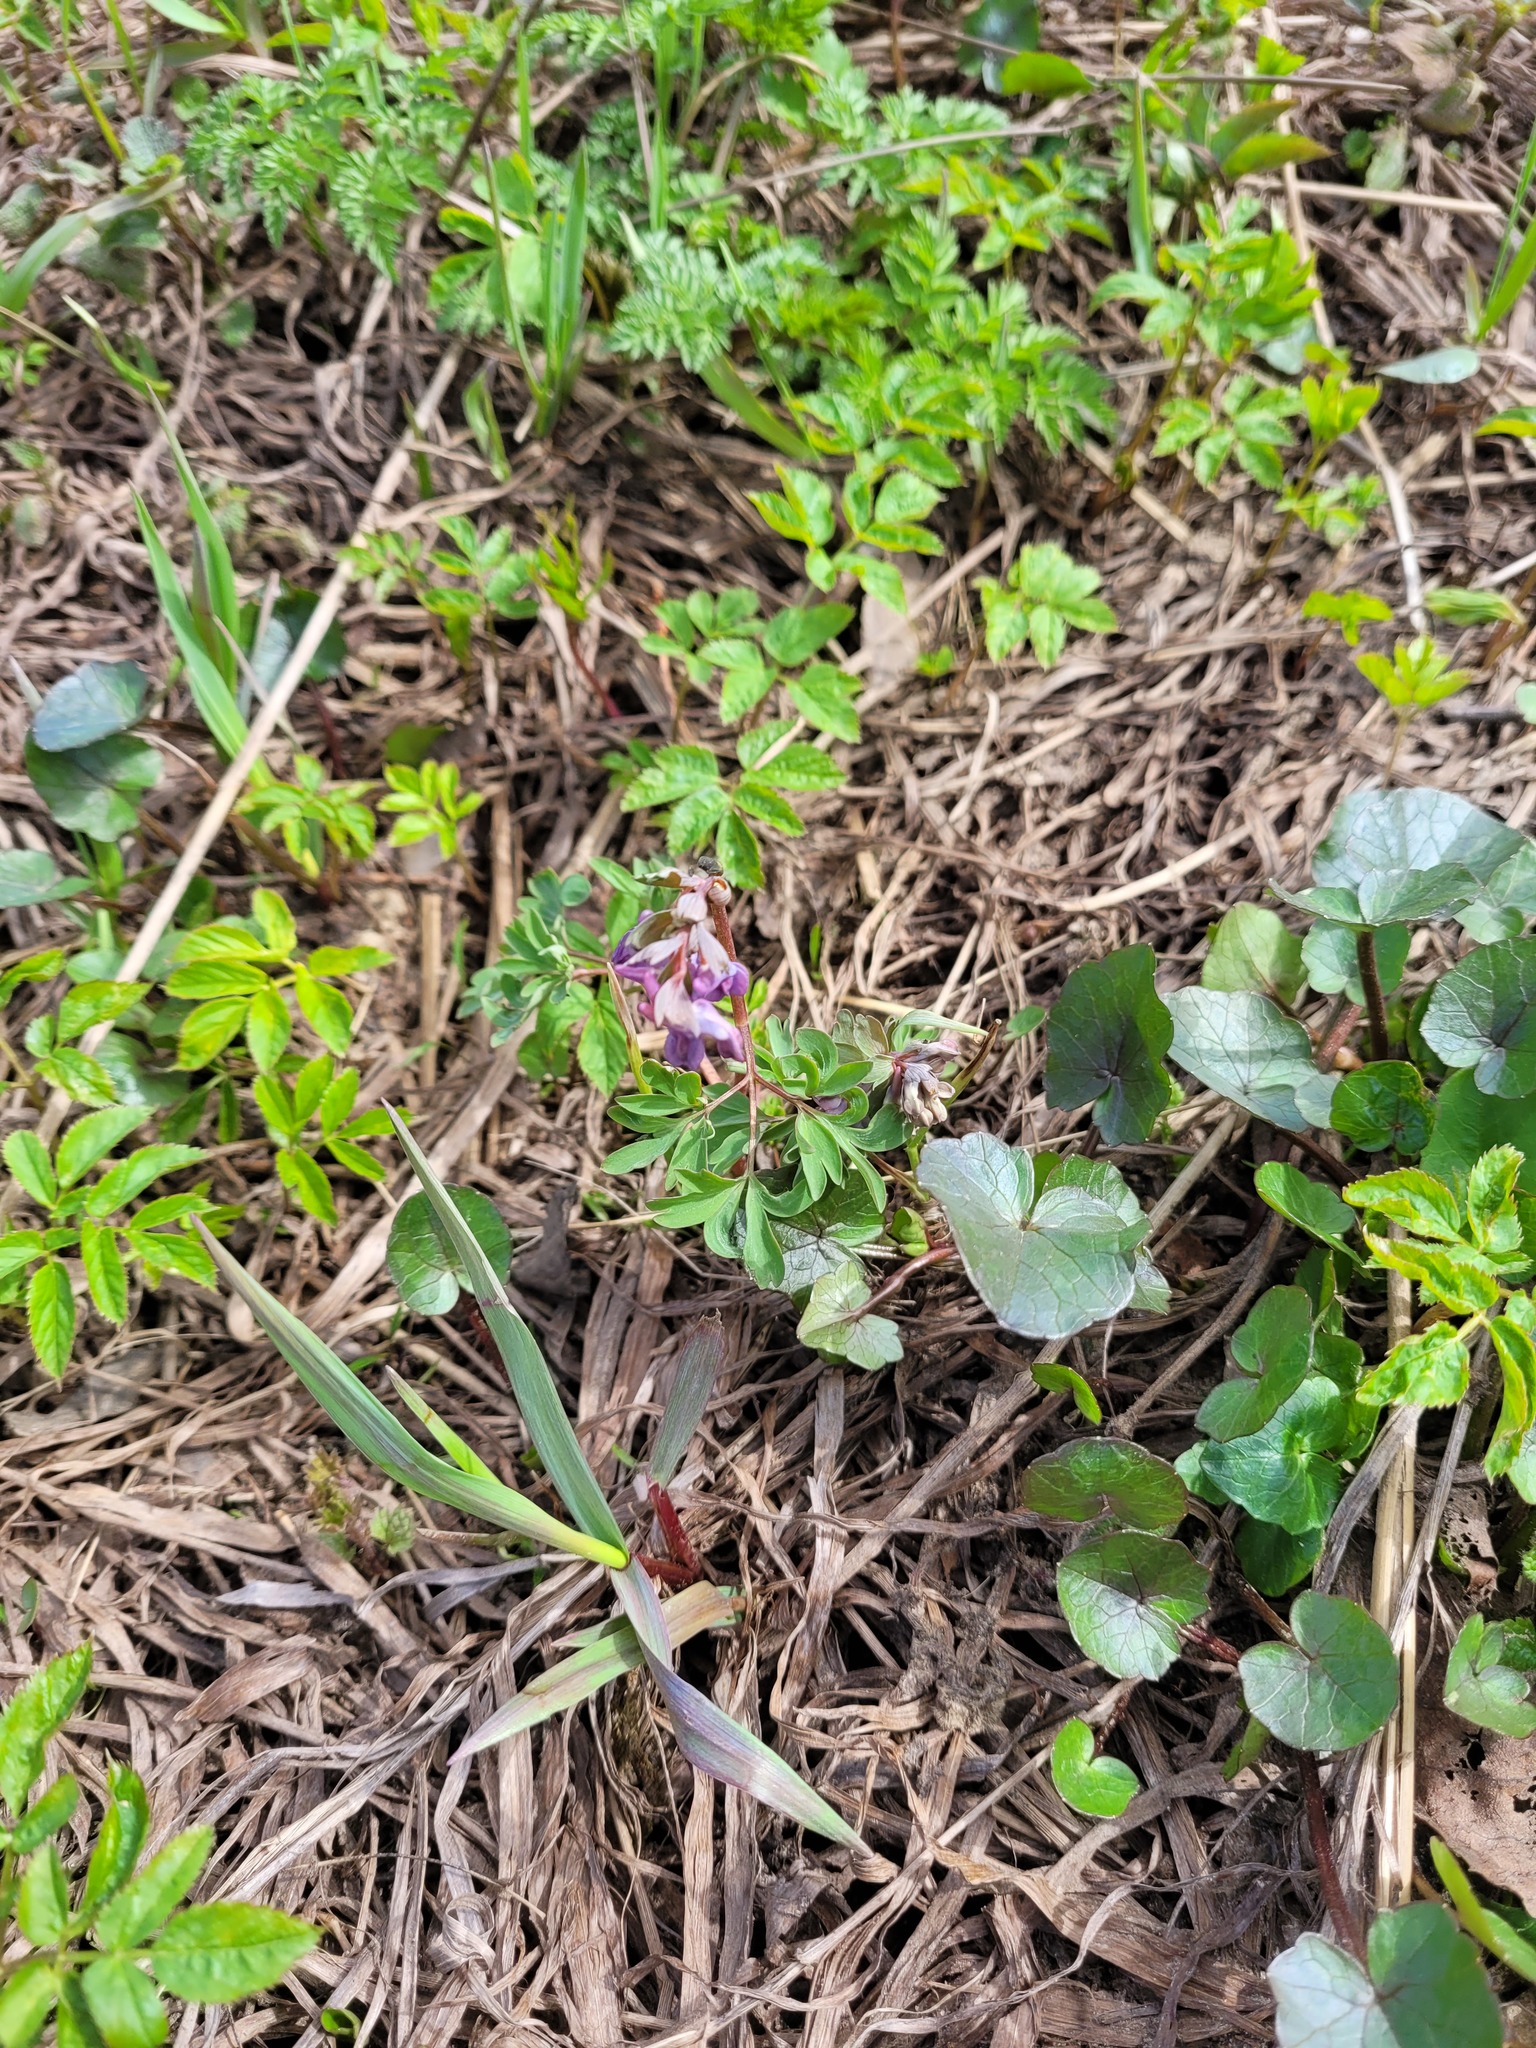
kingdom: Plantae
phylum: Tracheophyta
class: Magnoliopsida
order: Ranunculales
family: Papaveraceae
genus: Corydalis
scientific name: Corydalis solida
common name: Bird-in-a-bush
